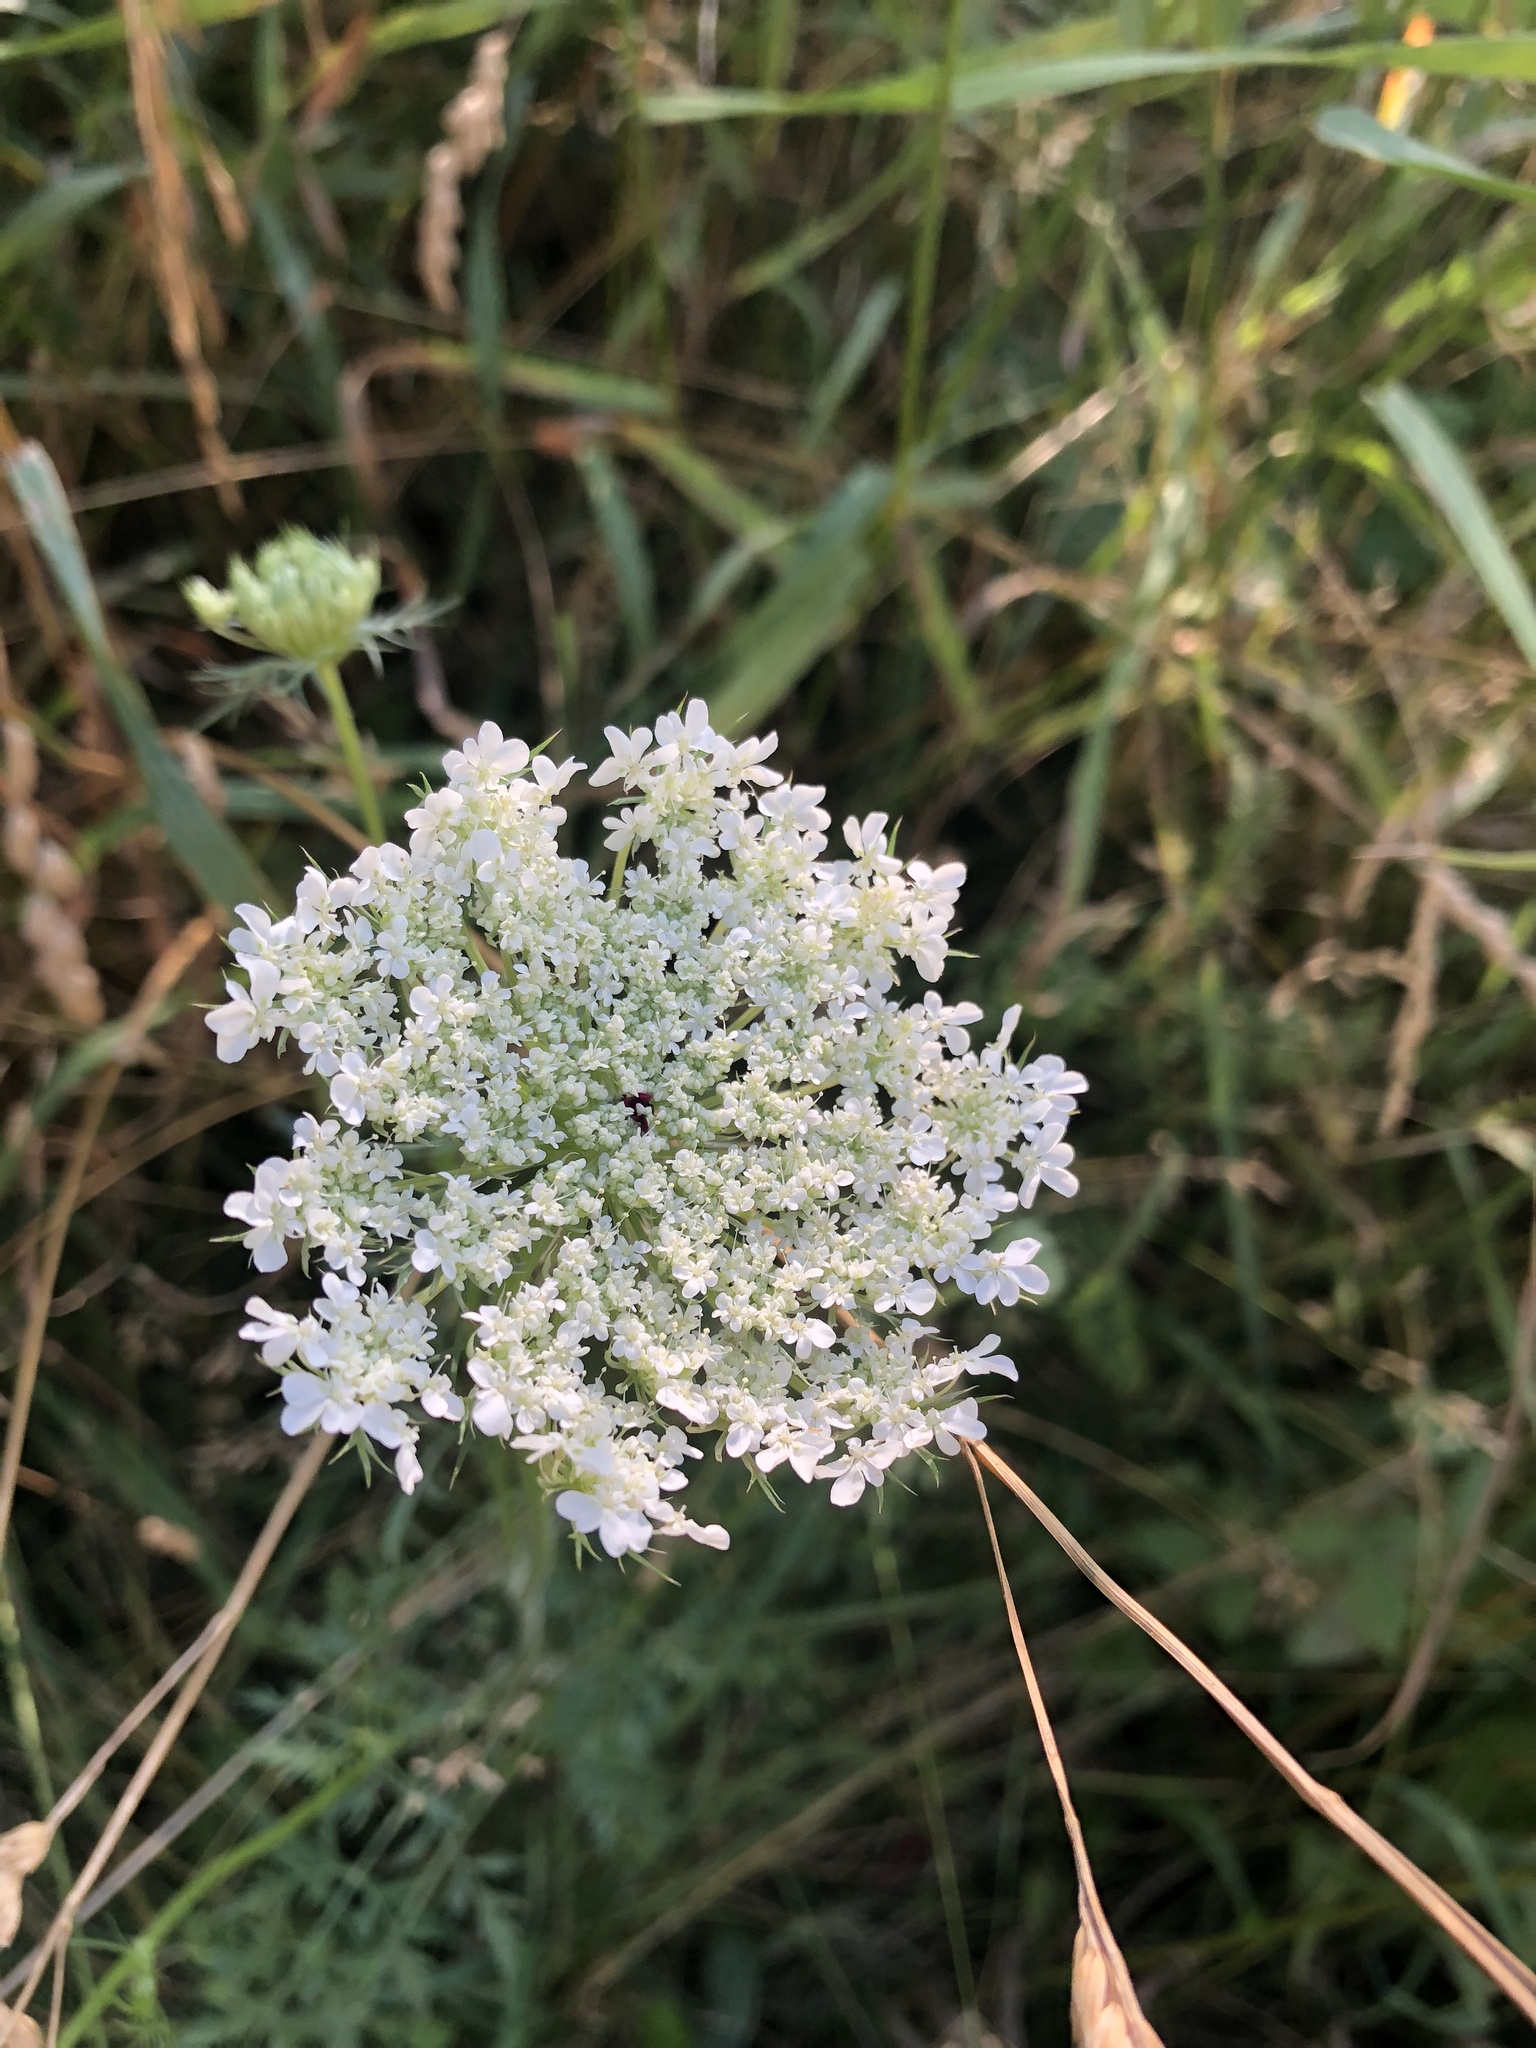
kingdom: Plantae
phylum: Tracheophyta
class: Magnoliopsida
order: Apiales
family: Apiaceae
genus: Daucus
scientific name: Daucus carota
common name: Wild carrot
